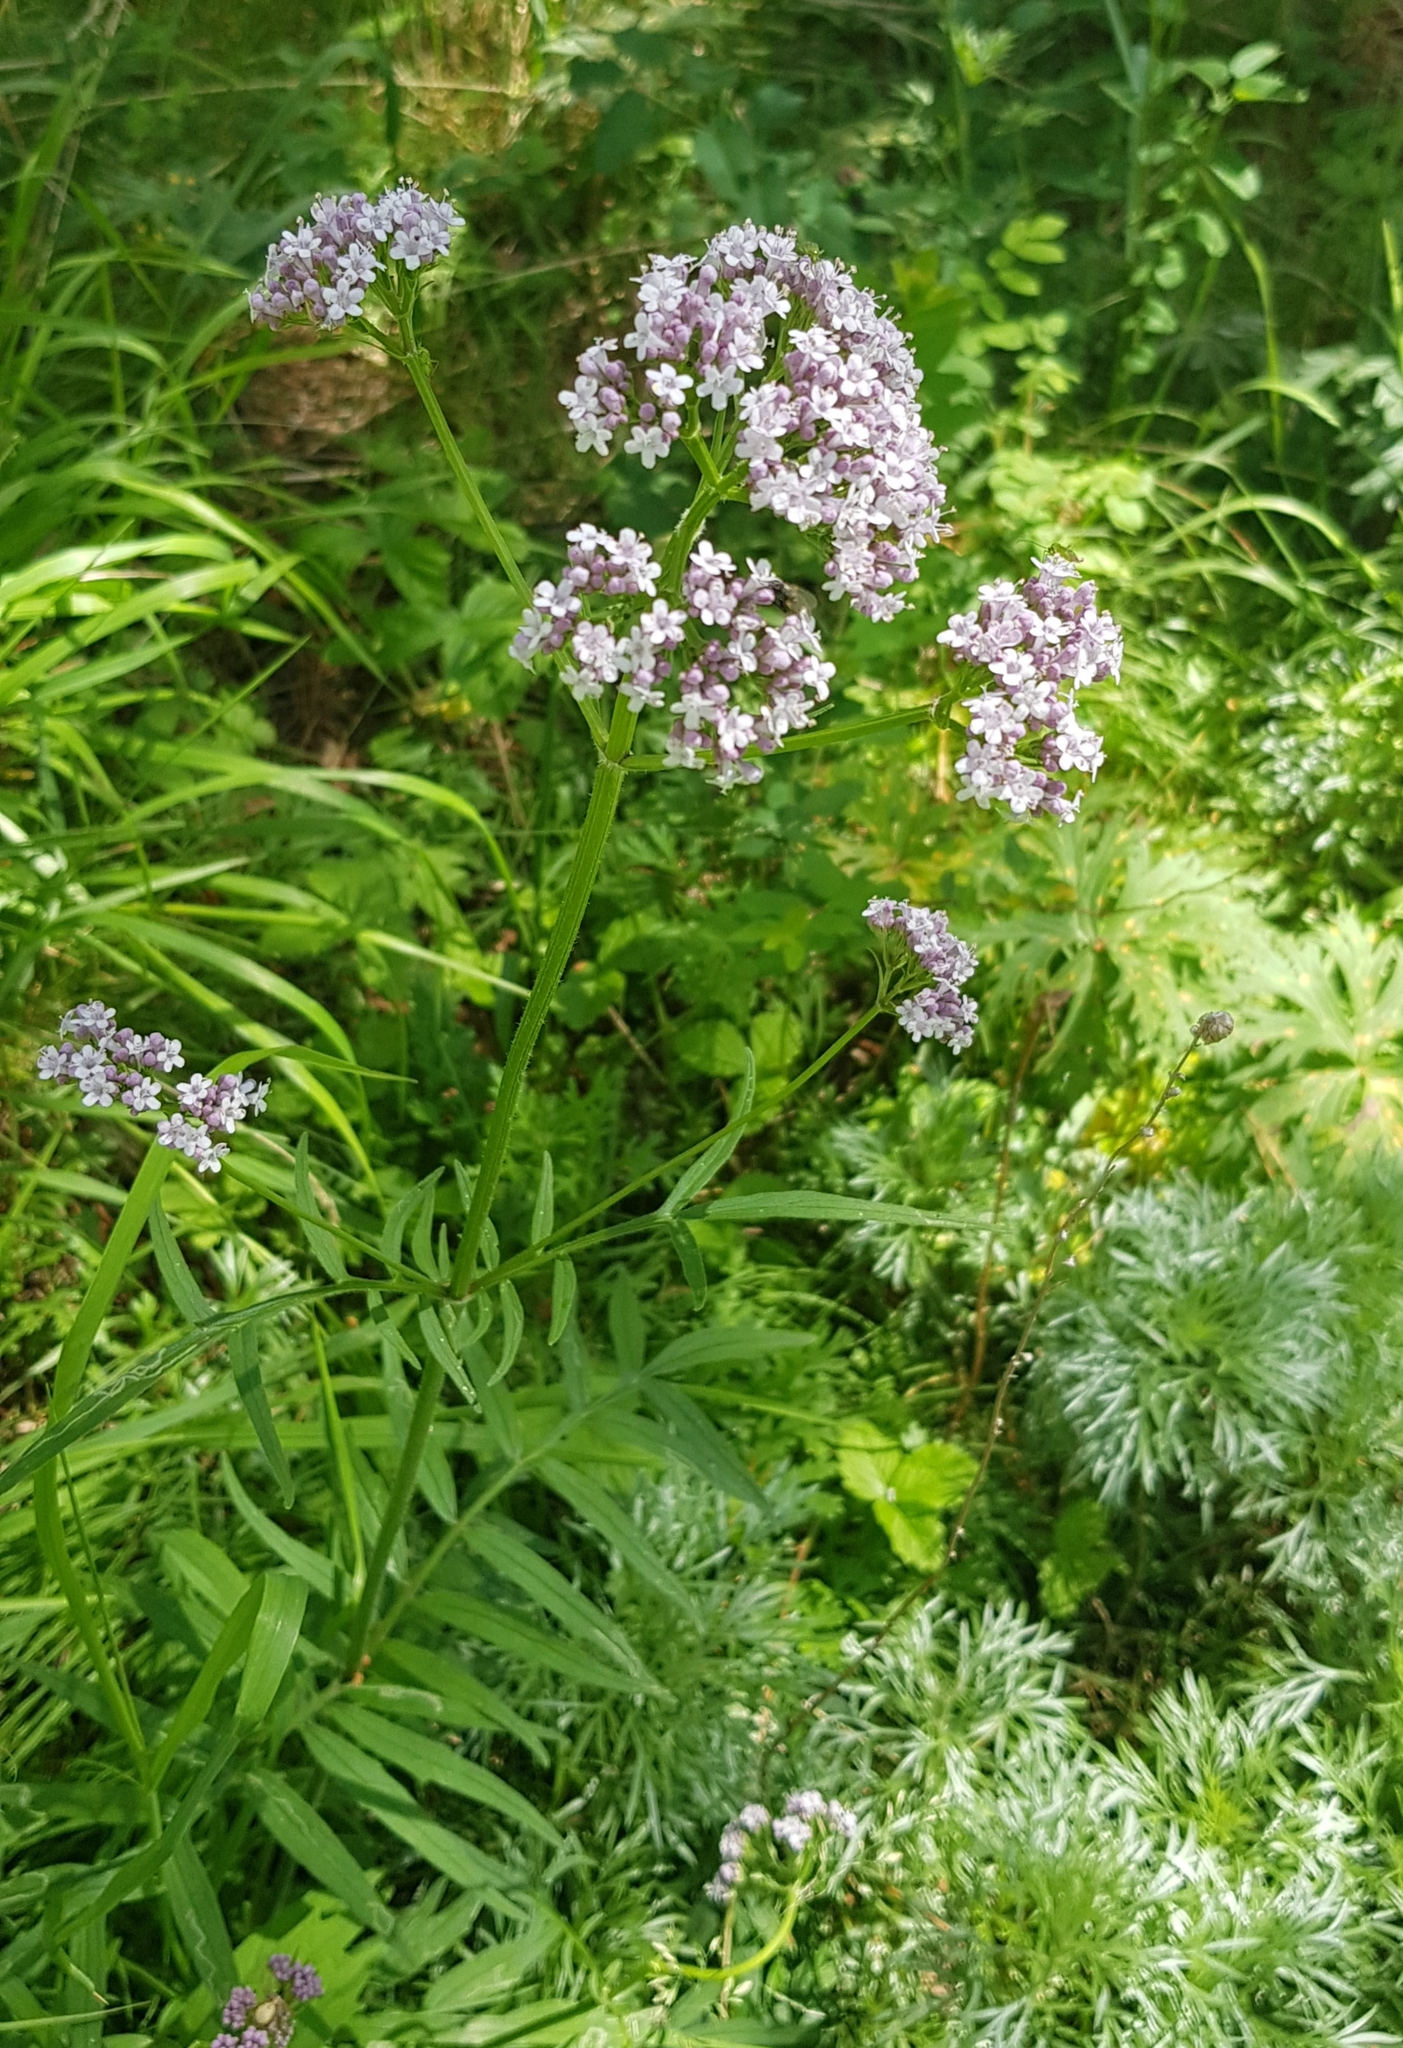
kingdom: Plantae
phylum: Tracheophyta
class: Magnoliopsida
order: Dipsacales
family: Caprifoliaceae
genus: Valeriana
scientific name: Valeriana officinalis
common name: Common valerian
